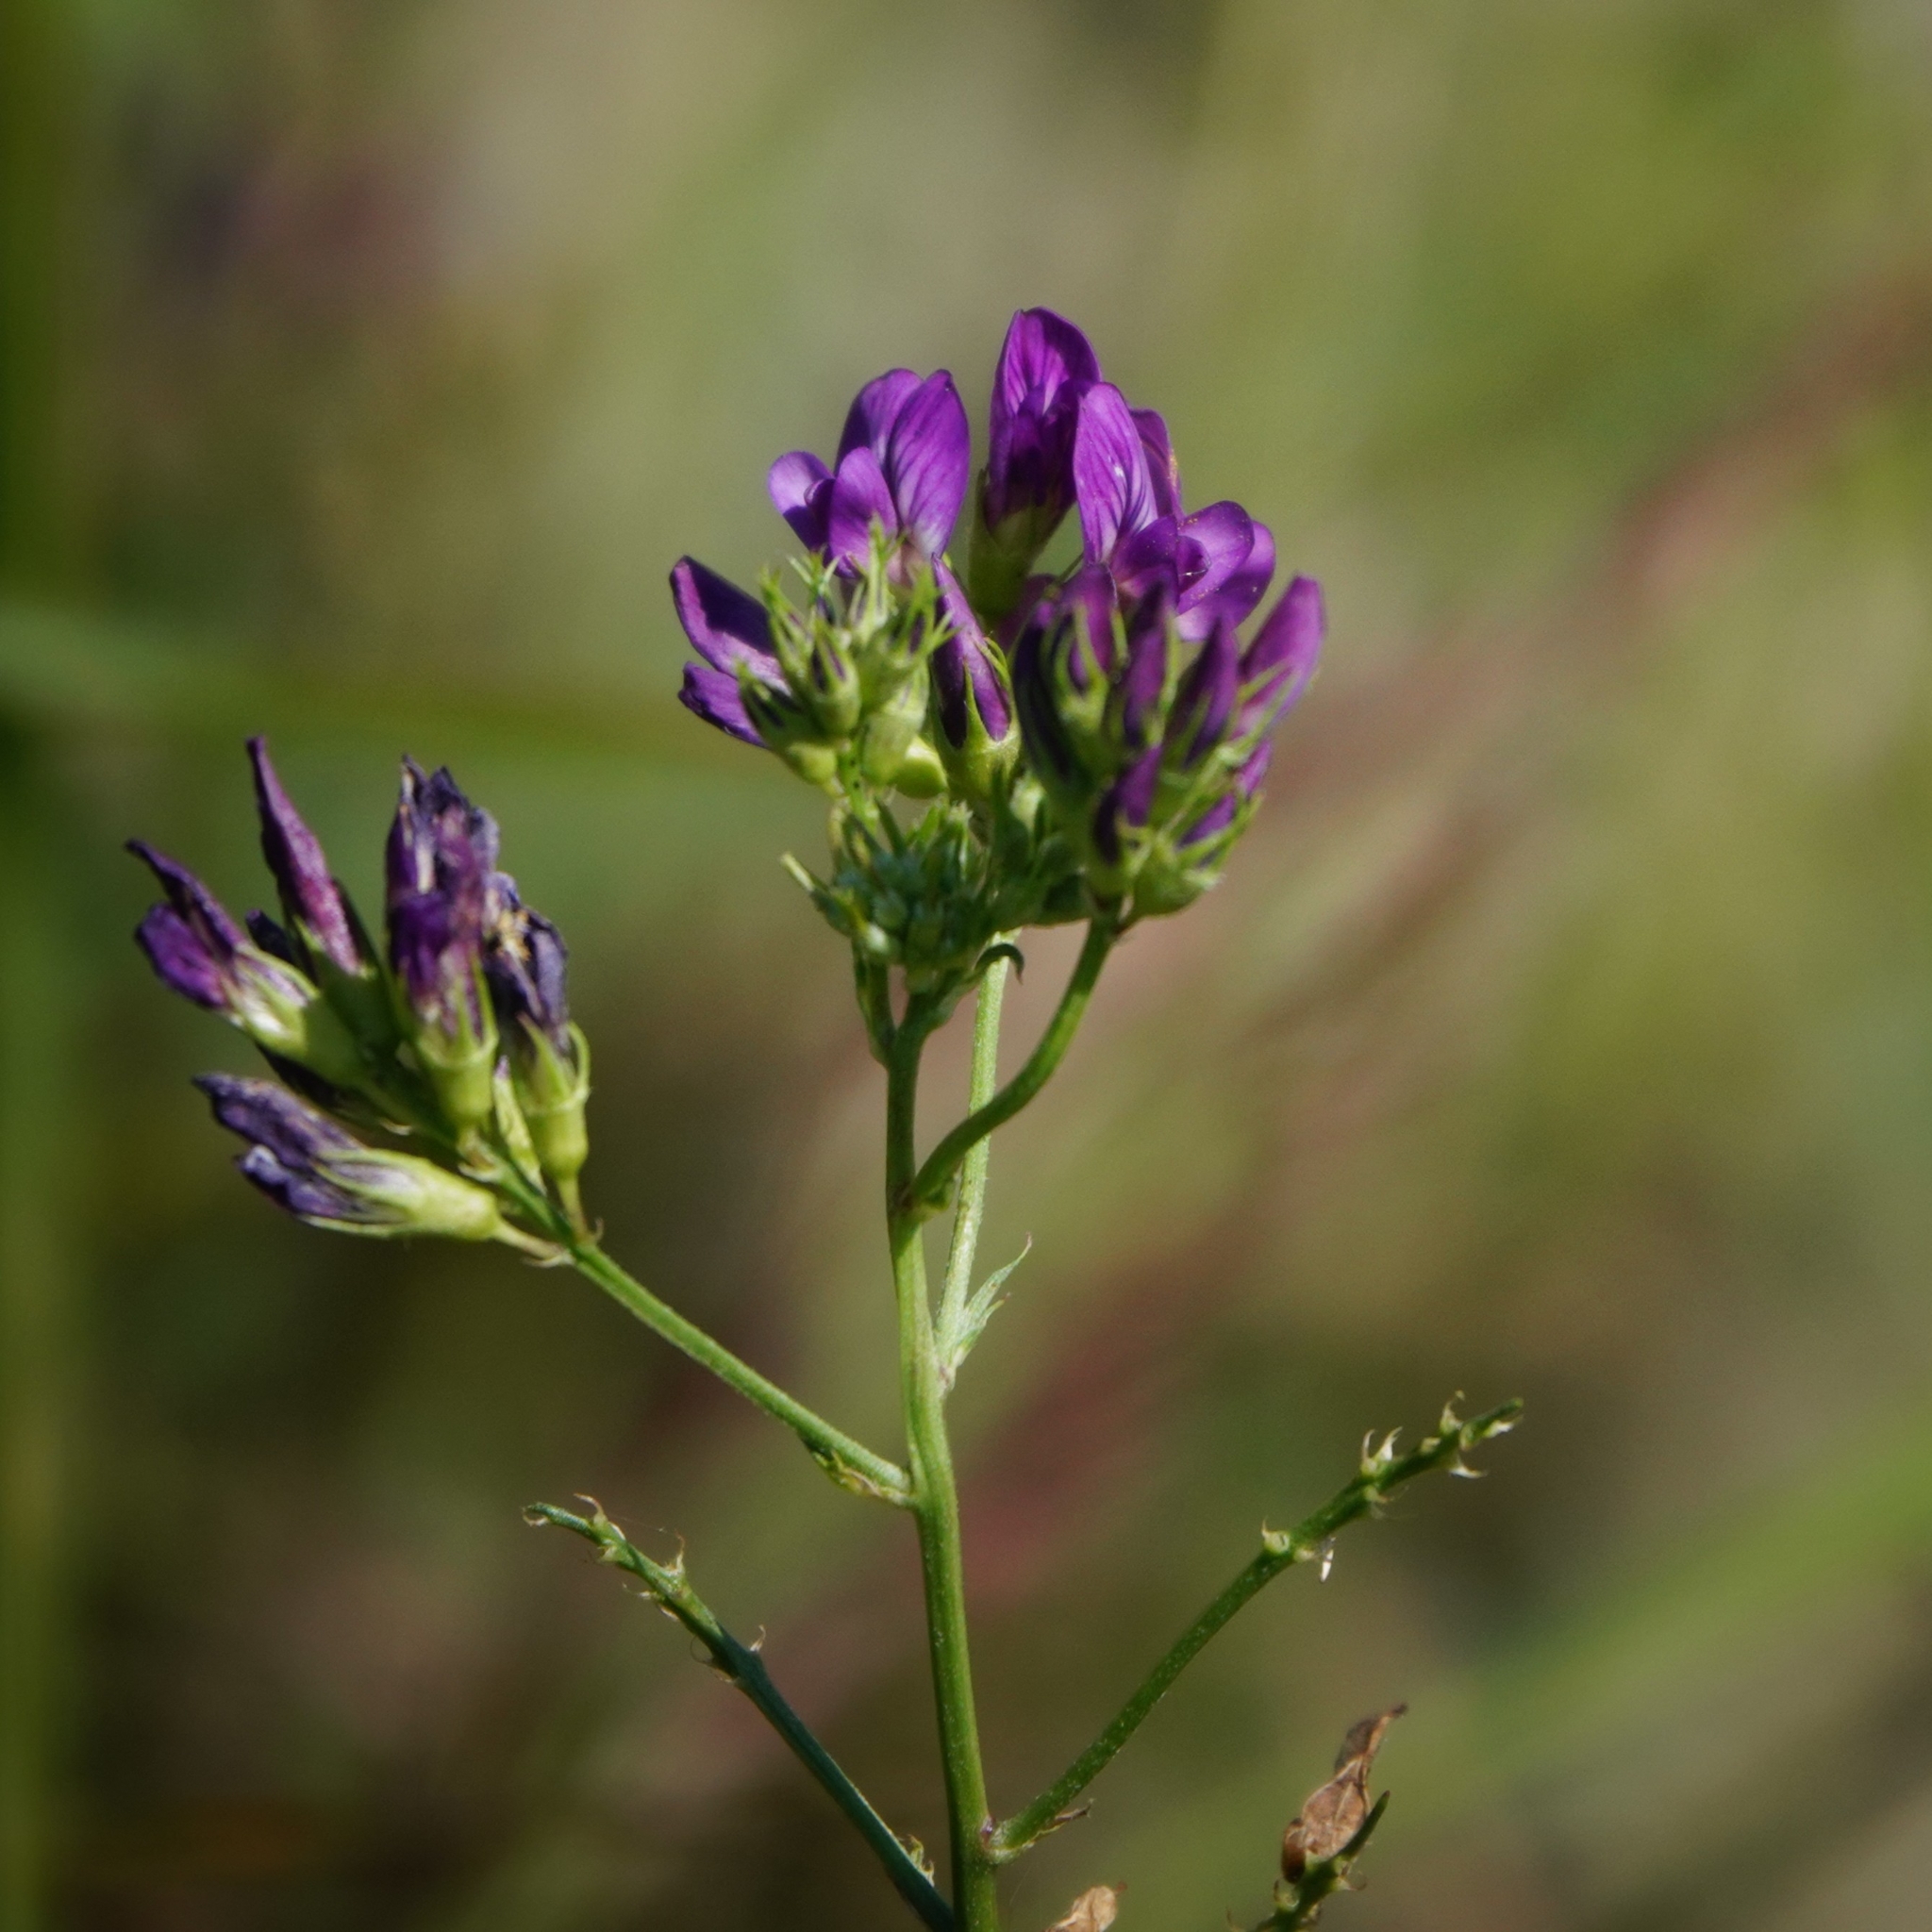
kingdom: Plantae
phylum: Tracheophyta
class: Magnoliopsida
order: Fabales
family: Fabaceae
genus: Medicago
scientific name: Medicago sativa
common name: Alfalfa
